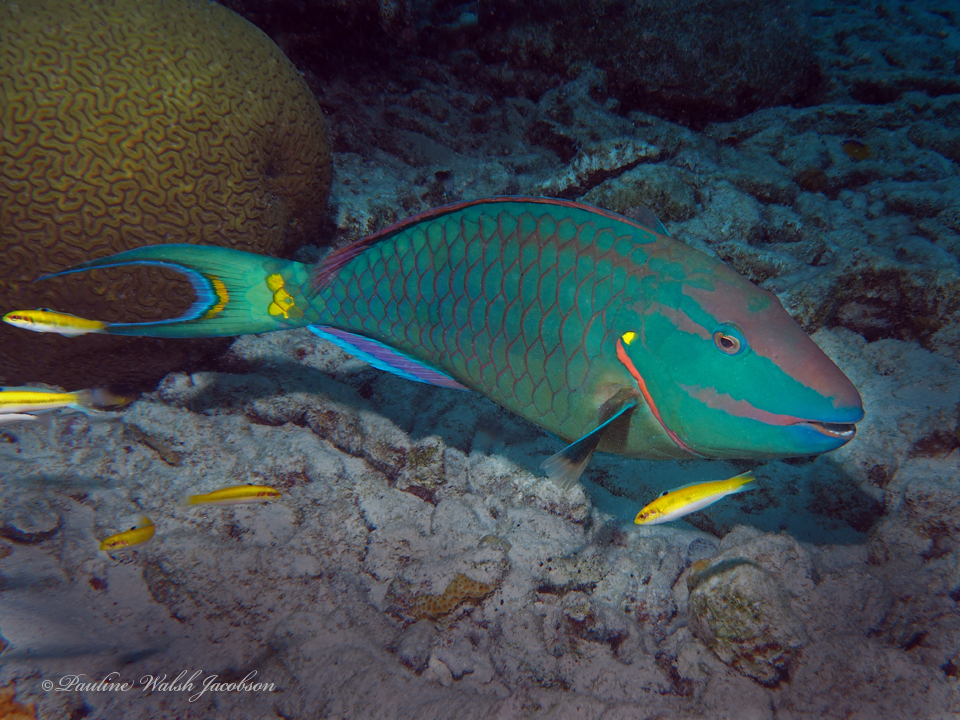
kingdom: Animalia
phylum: Chordata
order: Perciformes
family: Labridae
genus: Thalassoma
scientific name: Thalassoma bifasciatum
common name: Bluehead wrasse
